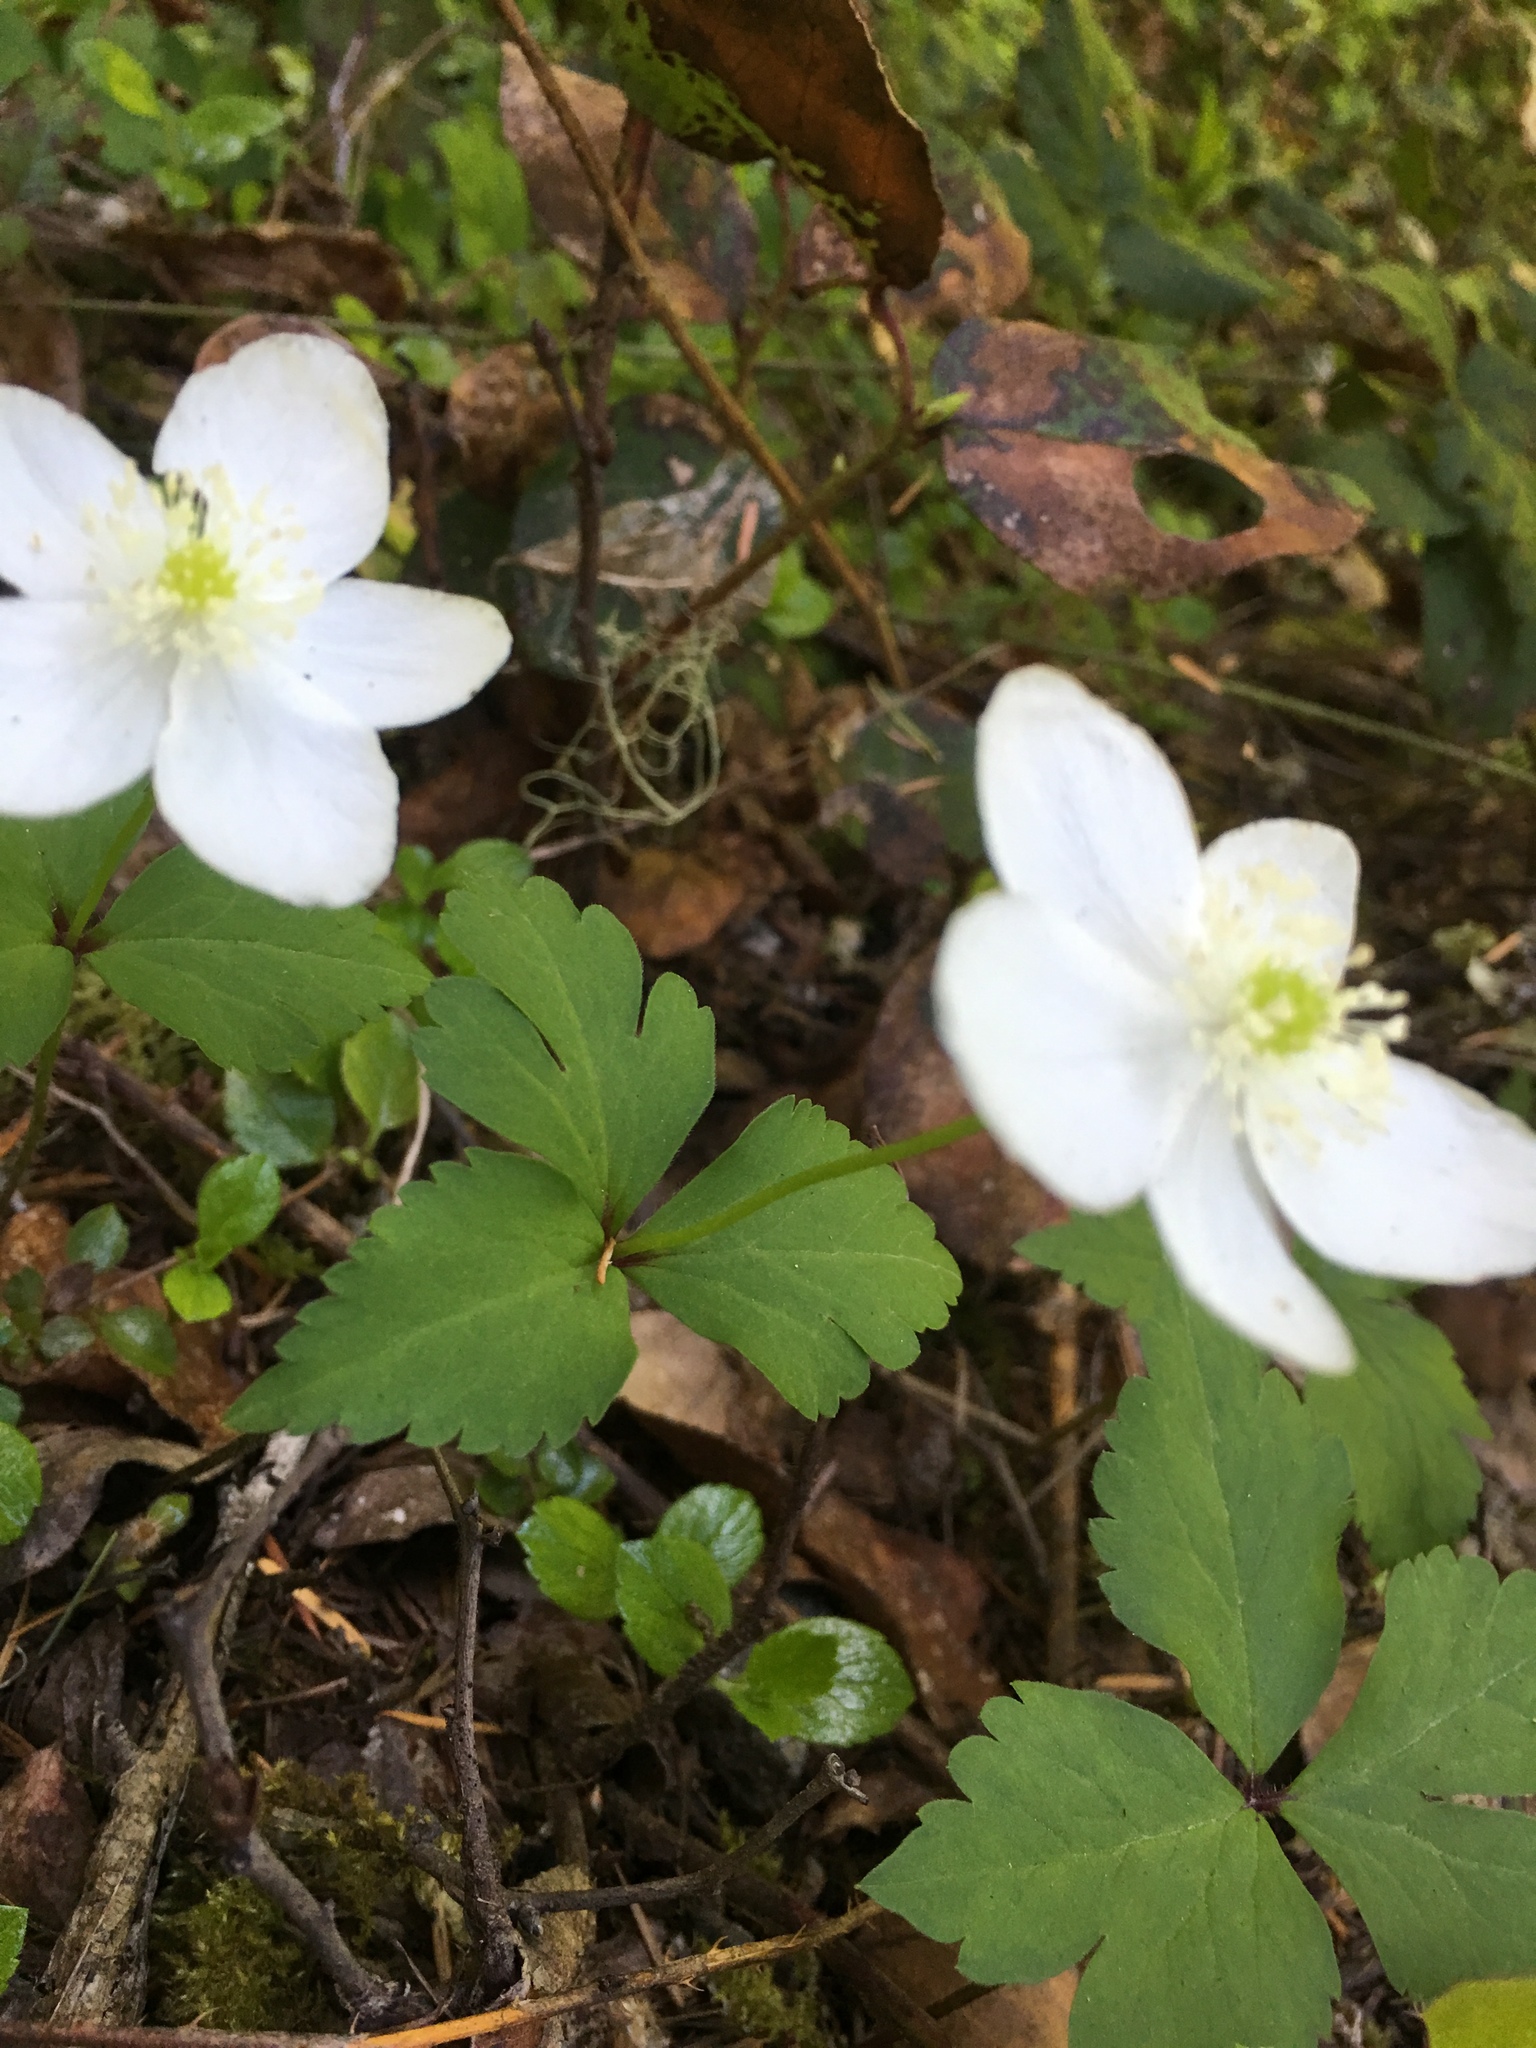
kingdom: Plantae
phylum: Tracheophyta
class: Magnoliopsida
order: Ranunculales
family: Ranunculaceae
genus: Anemonastrum
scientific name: Anemonastrum deltoideum
